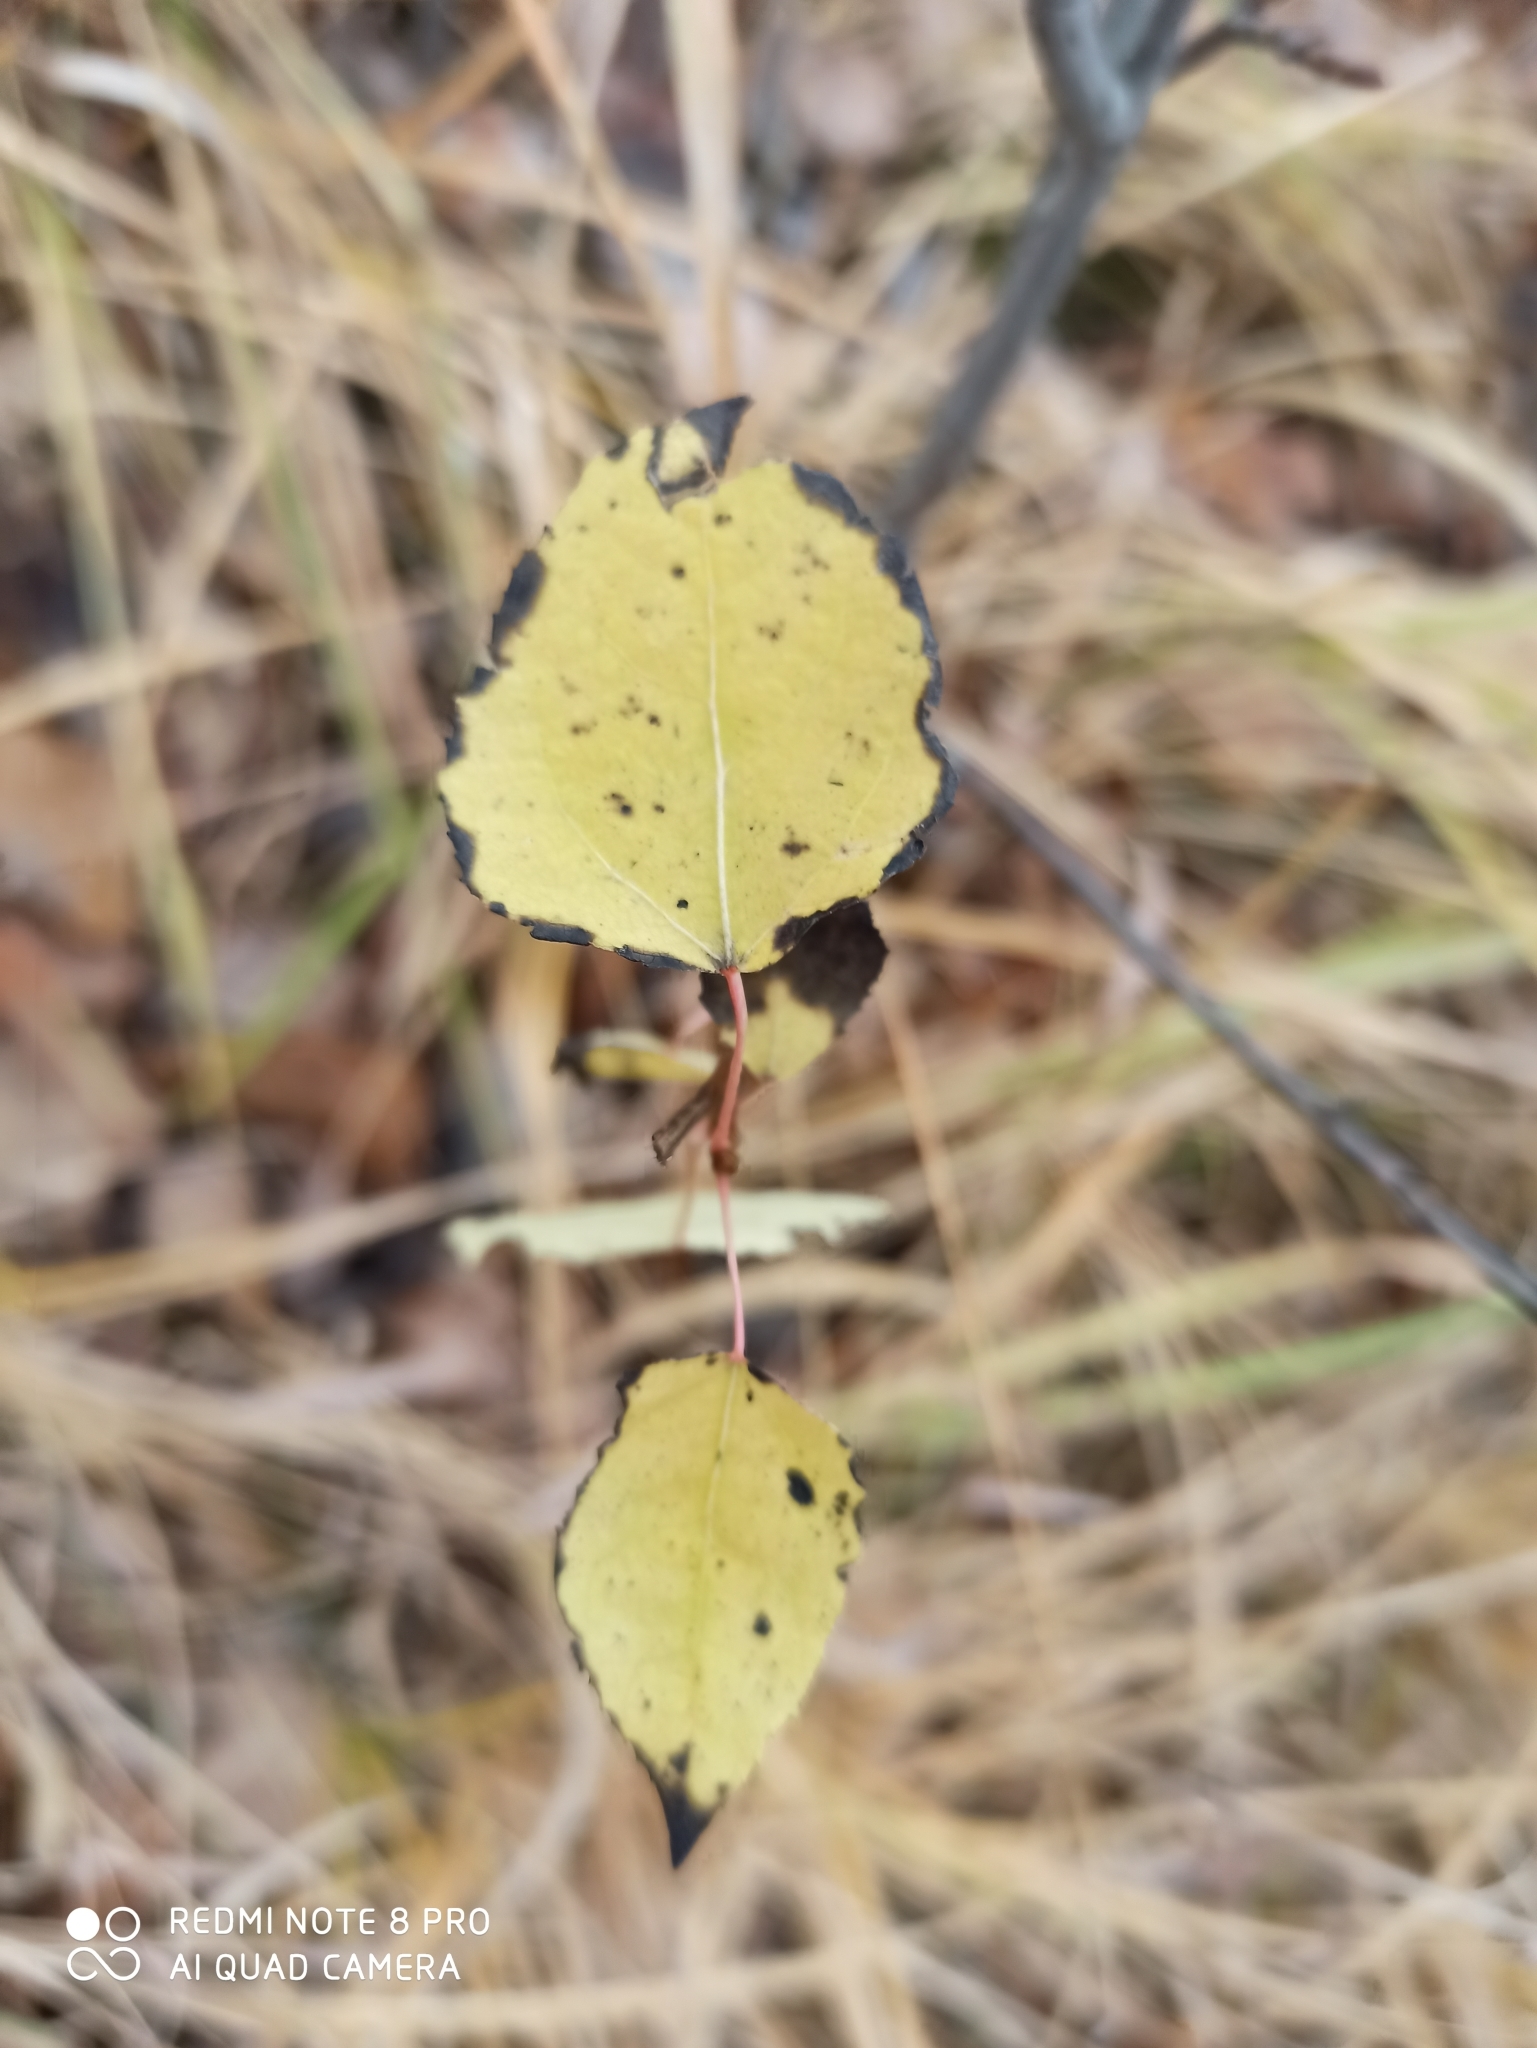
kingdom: Plantae
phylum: Tracheophyta
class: Magnoliopsida
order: Malpighiales
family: Salicaceae
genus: Populus
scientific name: Populus tremula
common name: European aspen
